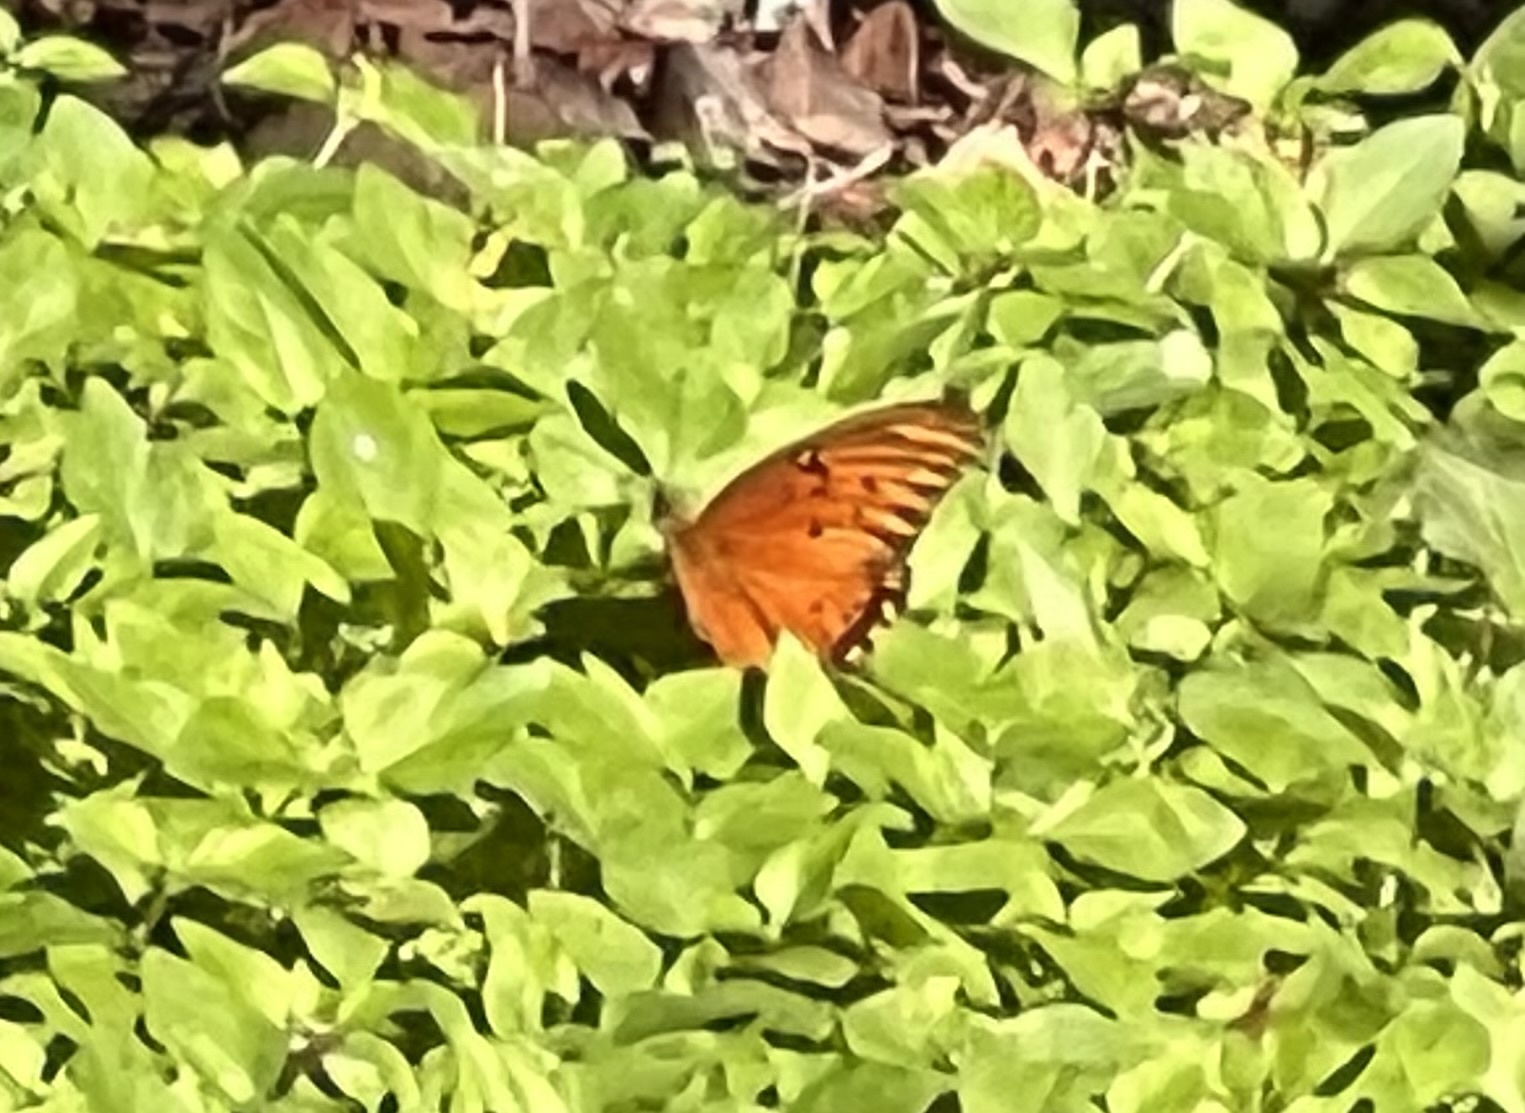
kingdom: Animalia
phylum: Arthropoda
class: Insecta
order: Lepidoptera
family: Nymphalidae
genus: Dione
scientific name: Dione vanillae
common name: Gulf fritillary
